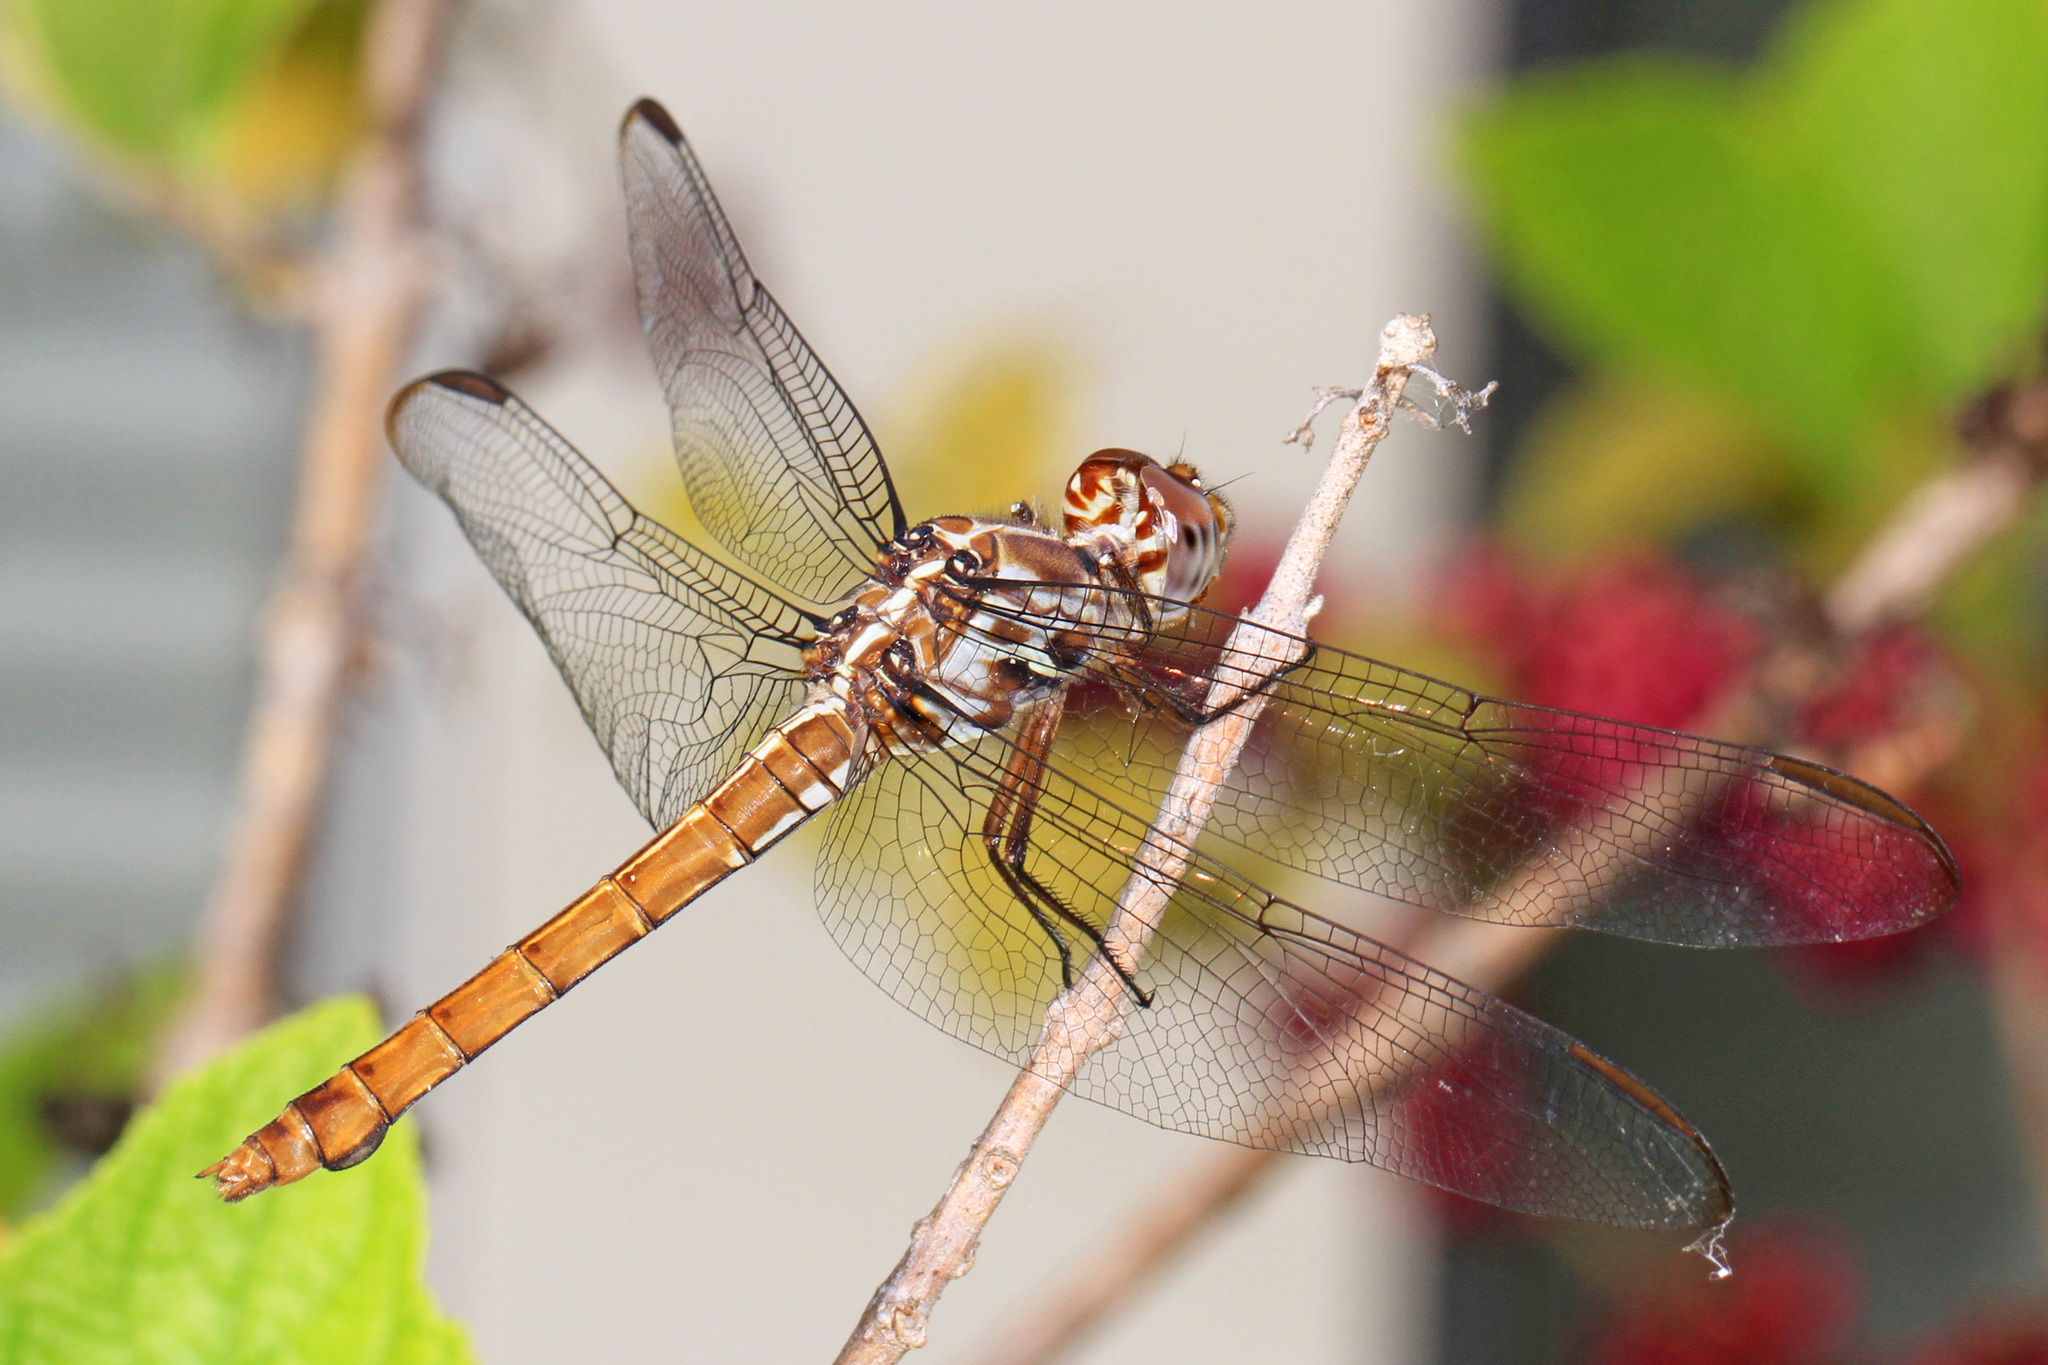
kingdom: Animalia
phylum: Arthropoda
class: Insecta
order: Odonata
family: Libellulidae
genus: Orthemis
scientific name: Orthemis ferruginea
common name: Roseate skimmer
